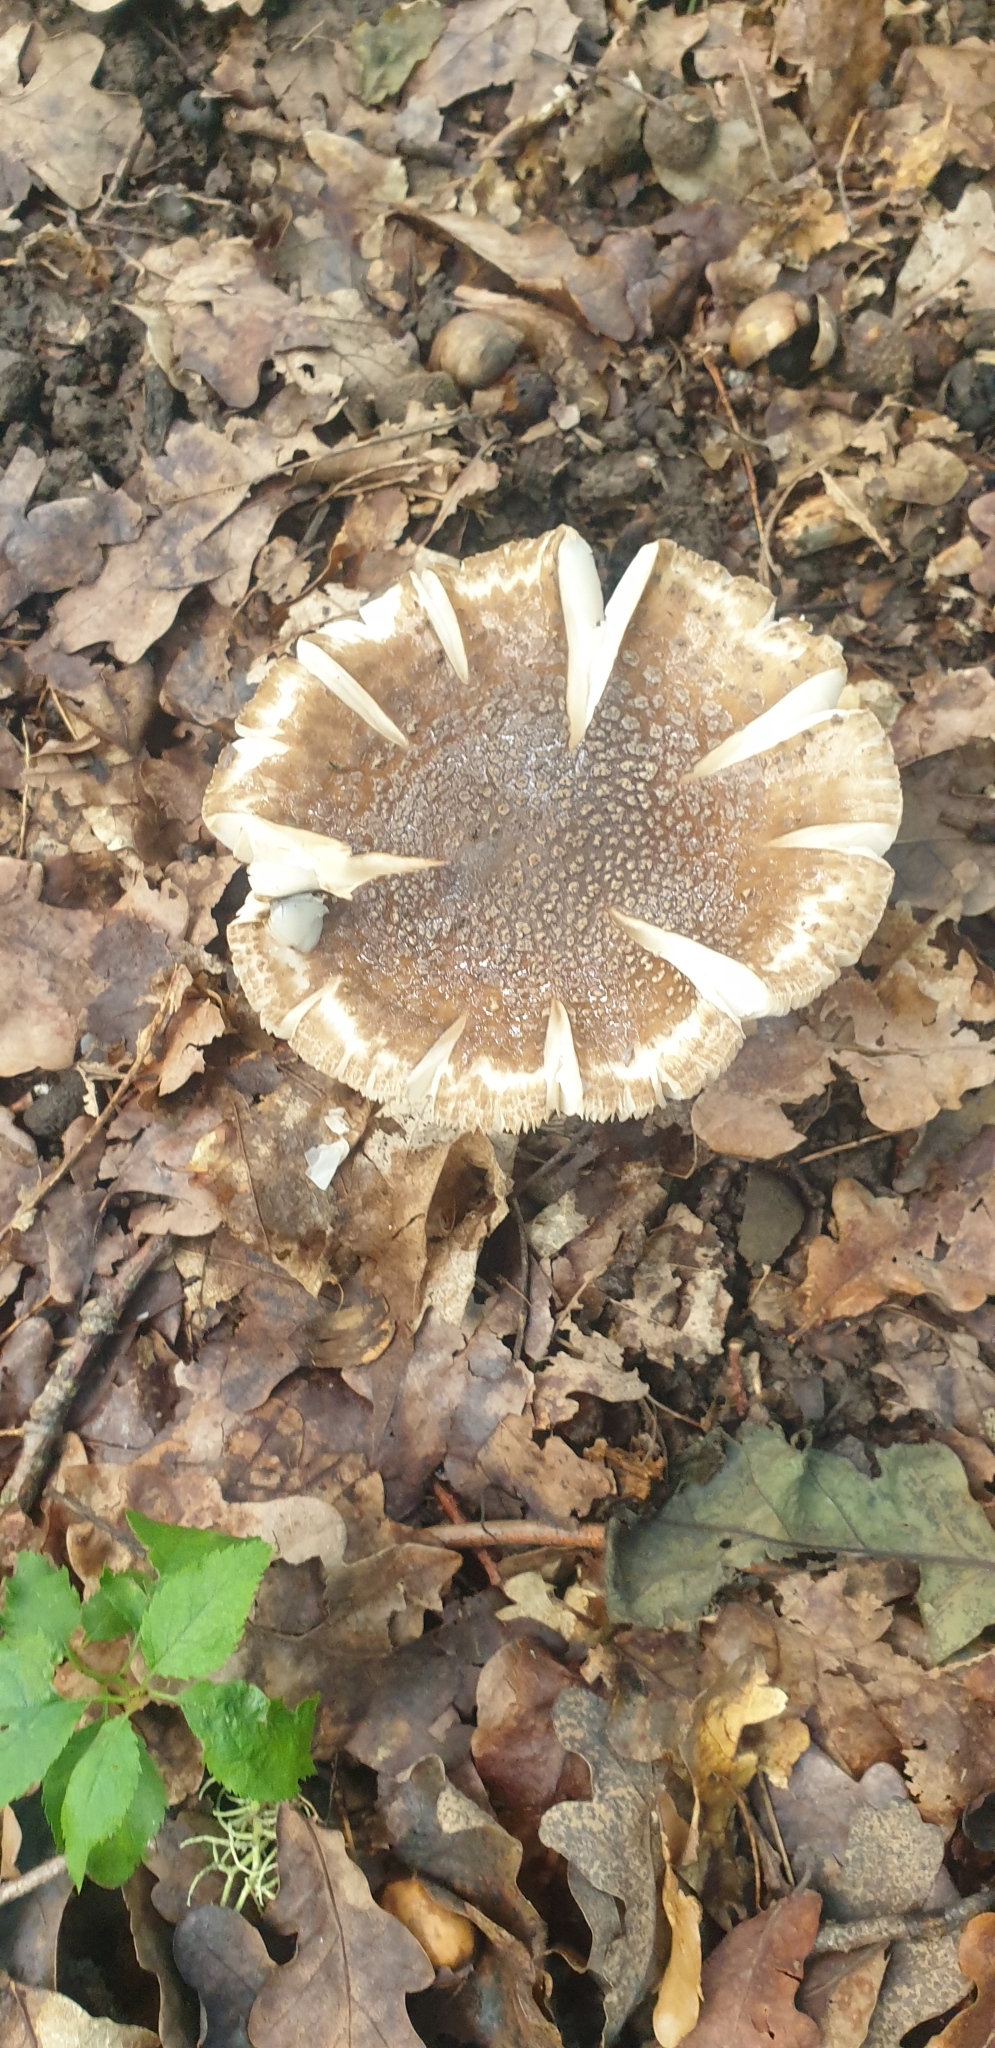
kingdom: Fungi
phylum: Basidiomycota
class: Agaricomycetes
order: Agaricales
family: Amanitaceae
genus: Amanita
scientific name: Amanita excelsa
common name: European false blusher
